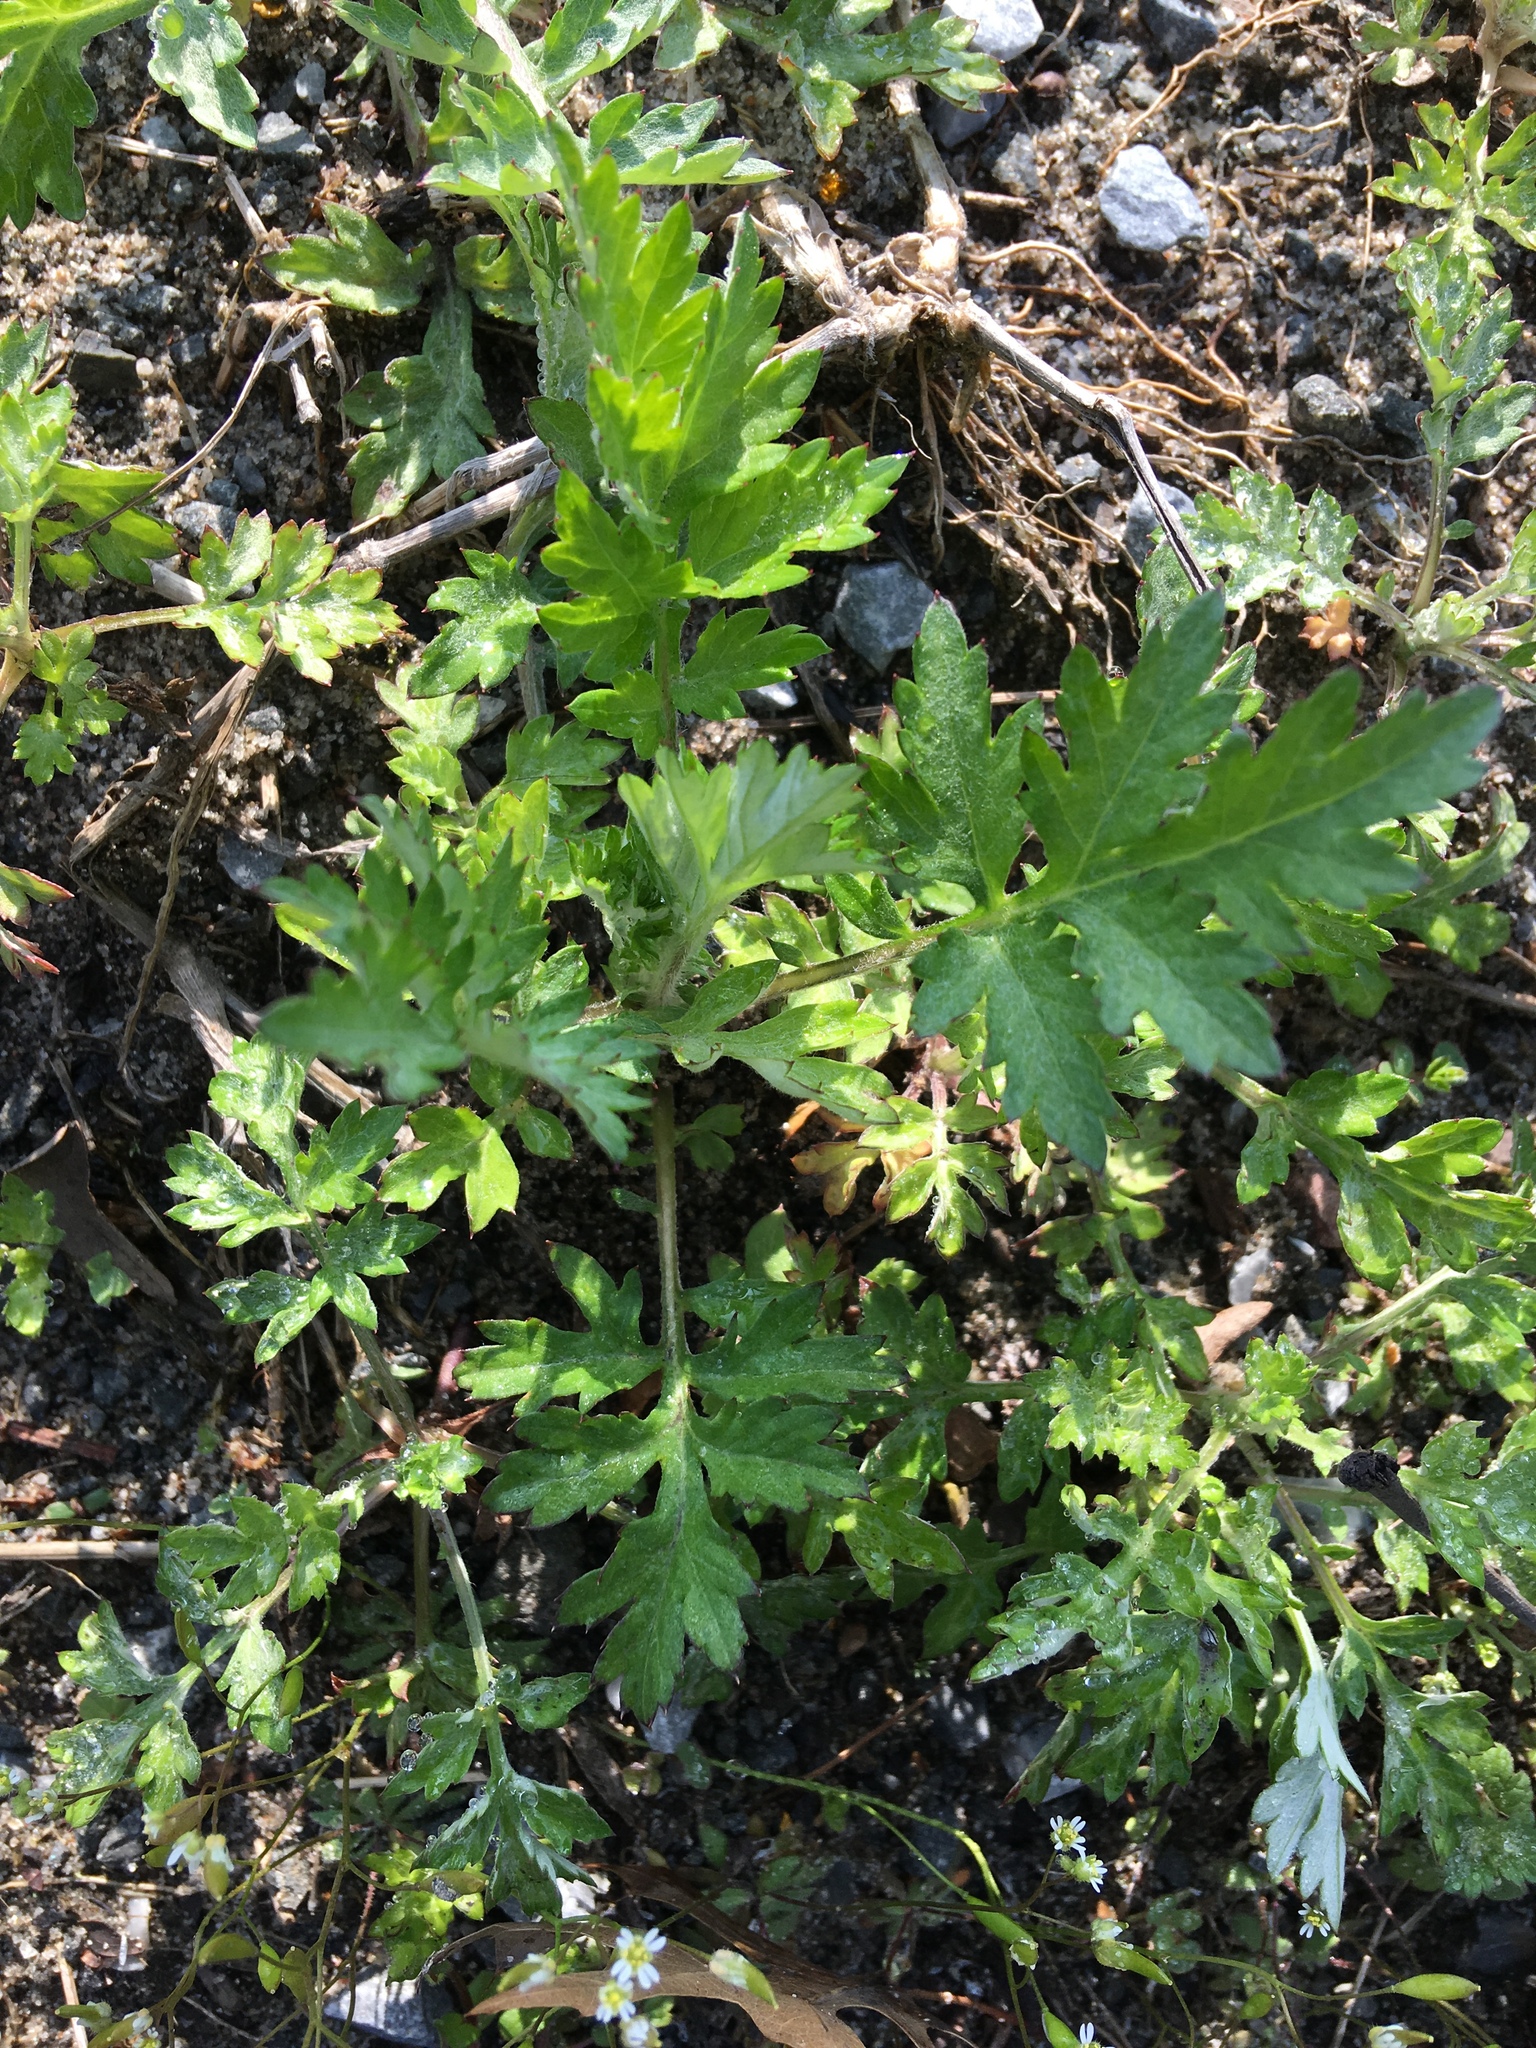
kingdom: Plantae
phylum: Tracheophyta
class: Magnoliopsida
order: Asterales
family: Asteraceae
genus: Artemisia
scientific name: Artemisia vulgaris
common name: Mugwort
